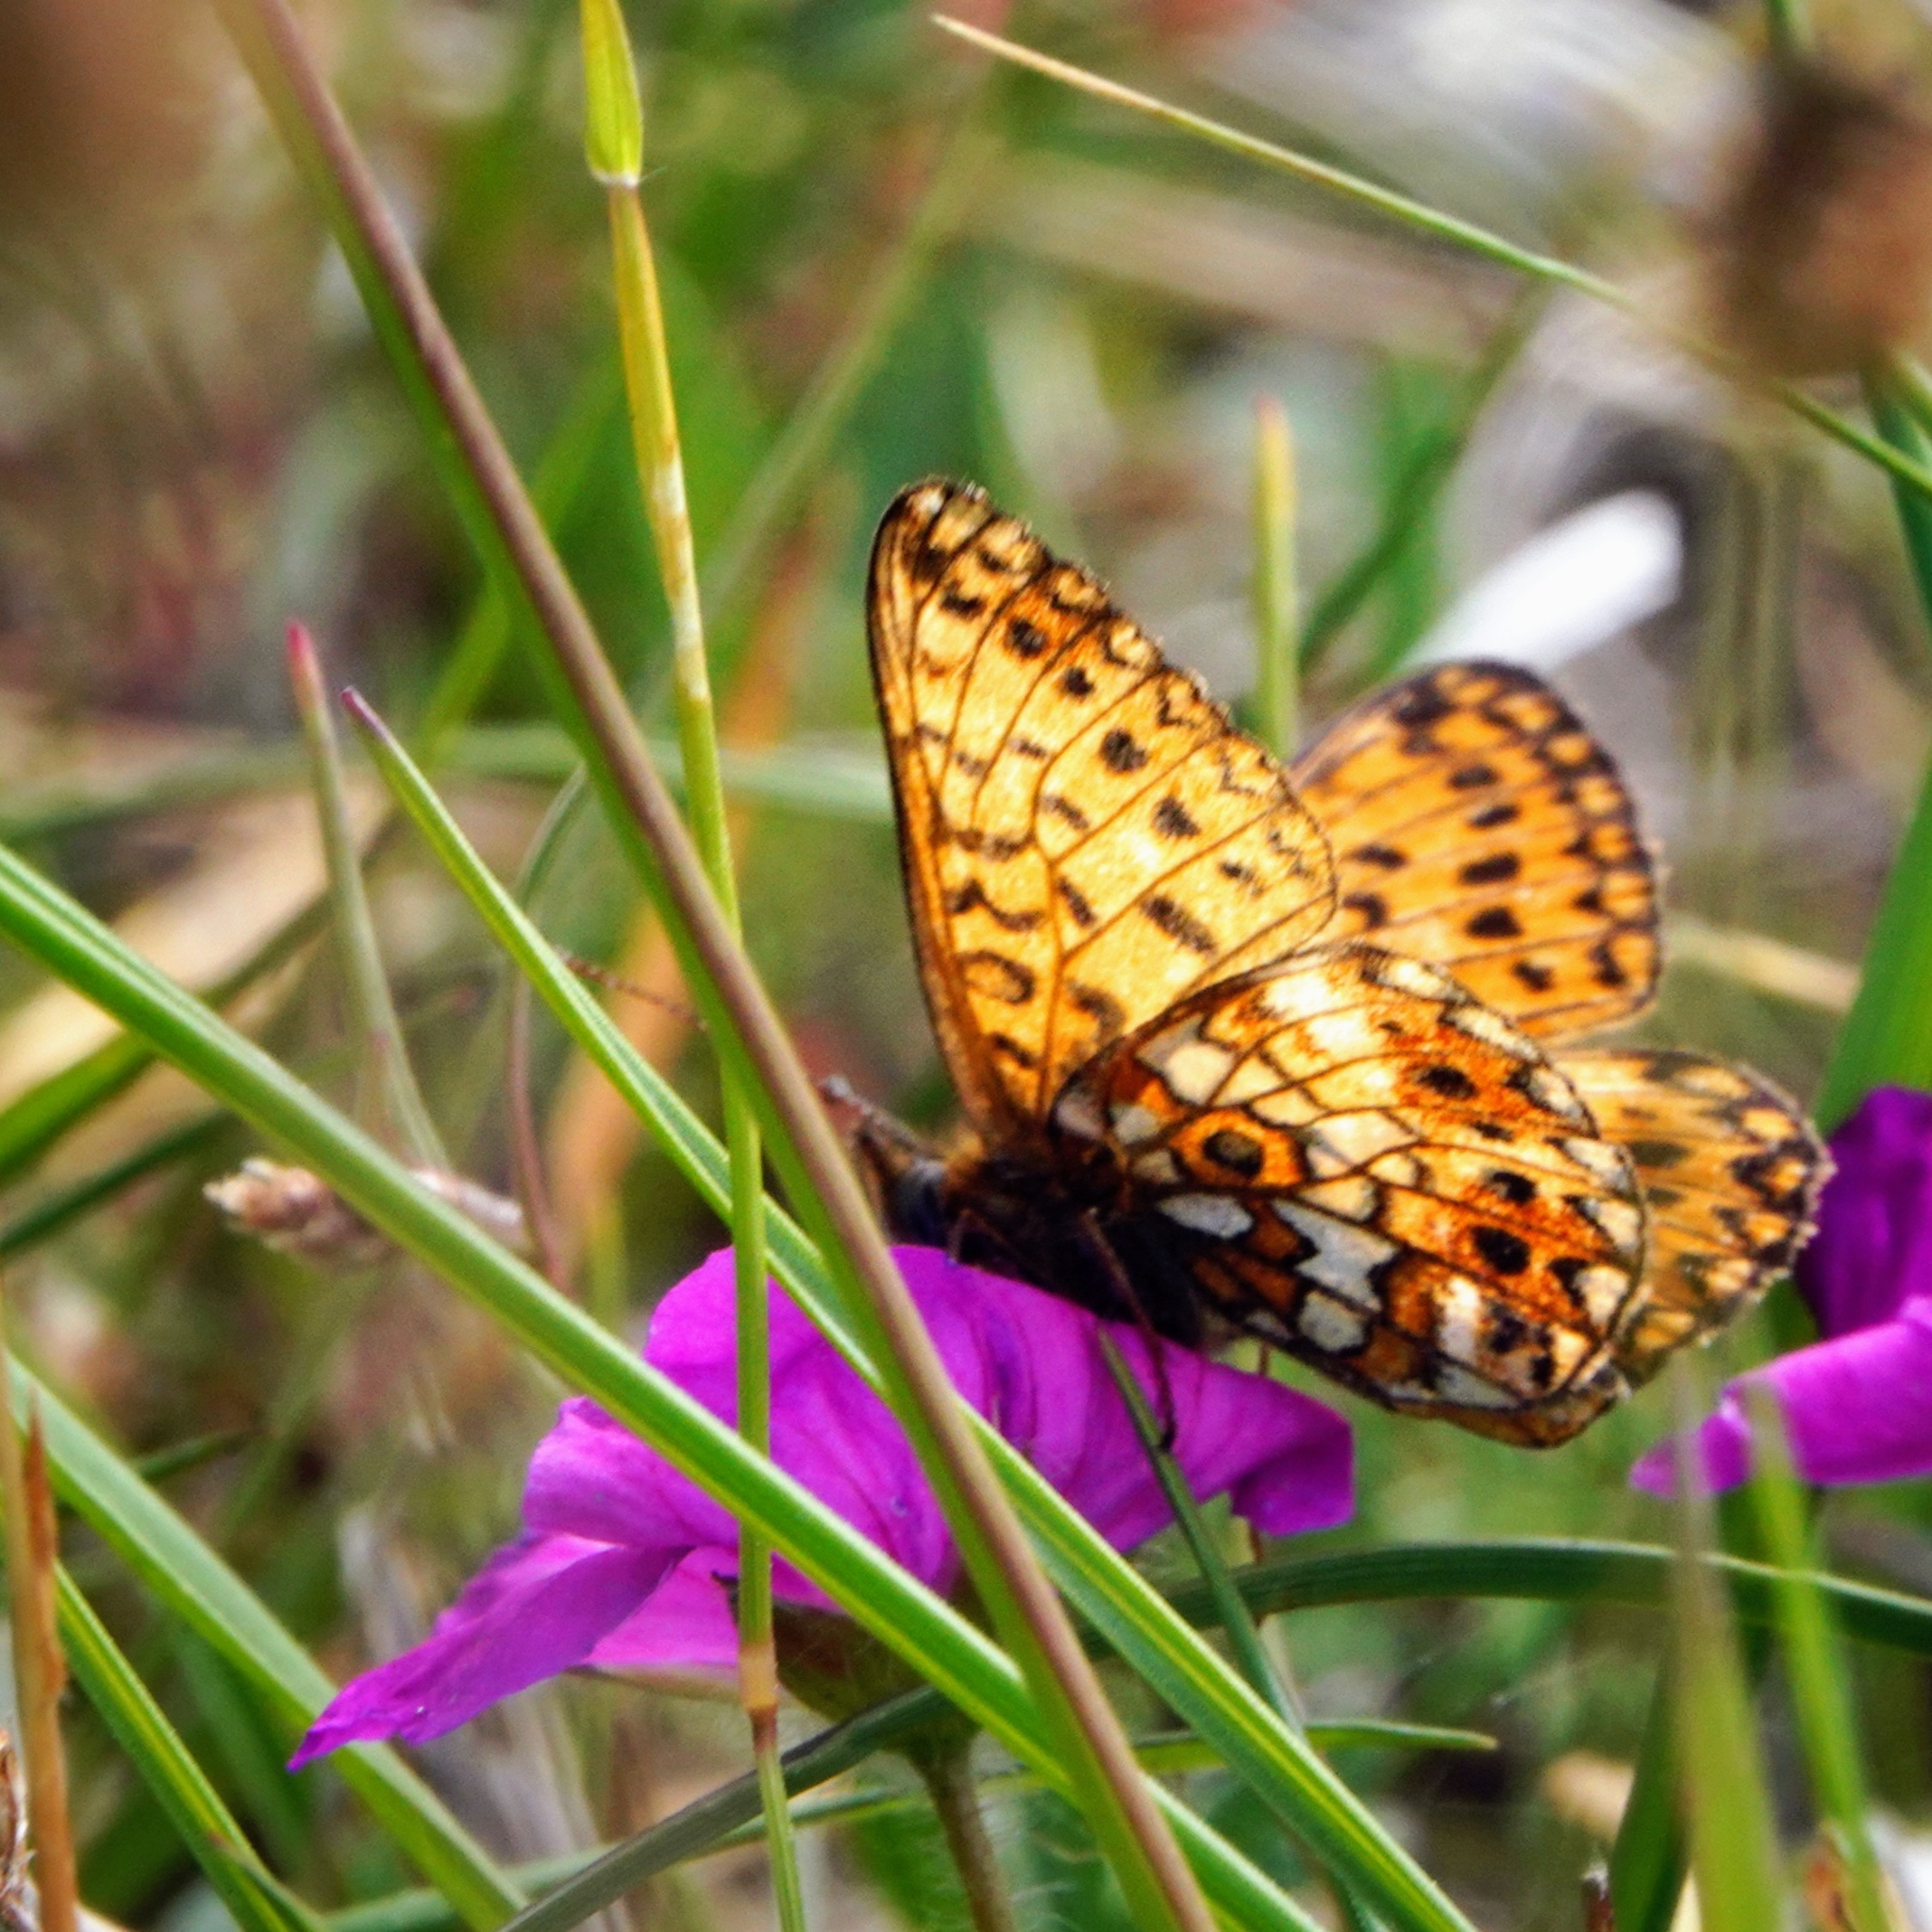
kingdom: Animalia
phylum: Arthropoda
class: Insecta
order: Lepidoptera
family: Nymphalidae
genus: Boloria
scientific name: Boloria selene
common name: Small pearl-bordered fritillary
